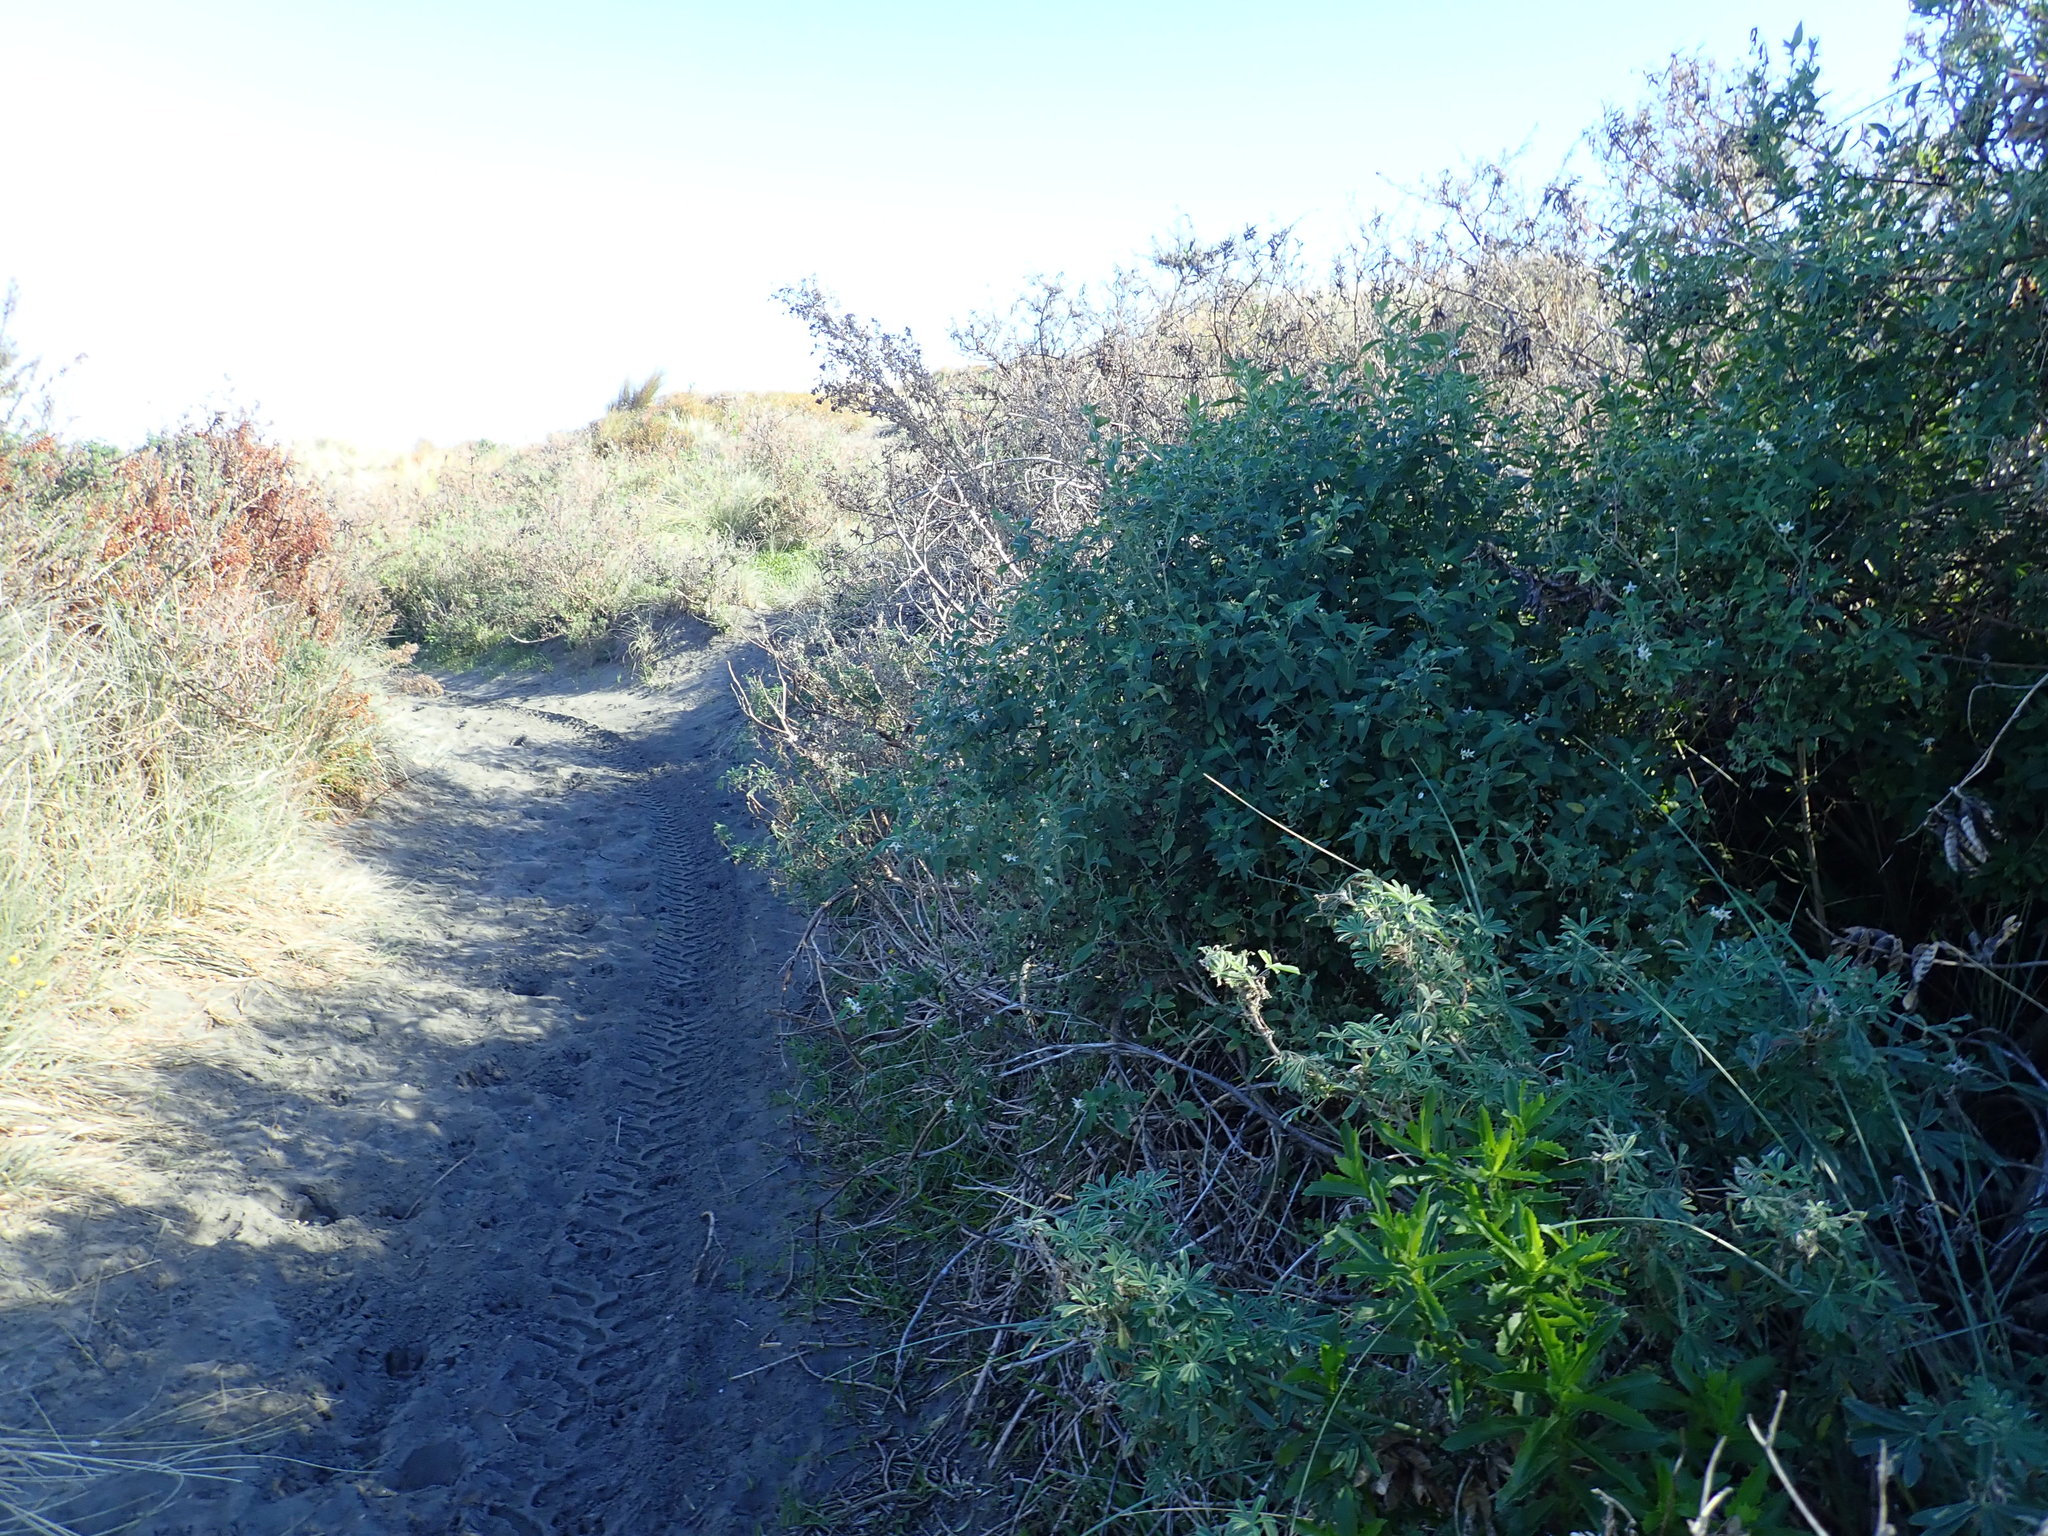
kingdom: Plantae
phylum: Tracheophyta
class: Magnoliopsida
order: Solanales
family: Solanaceae
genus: Solanum
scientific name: Solanum chenopodioides
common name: Tall nightshade
